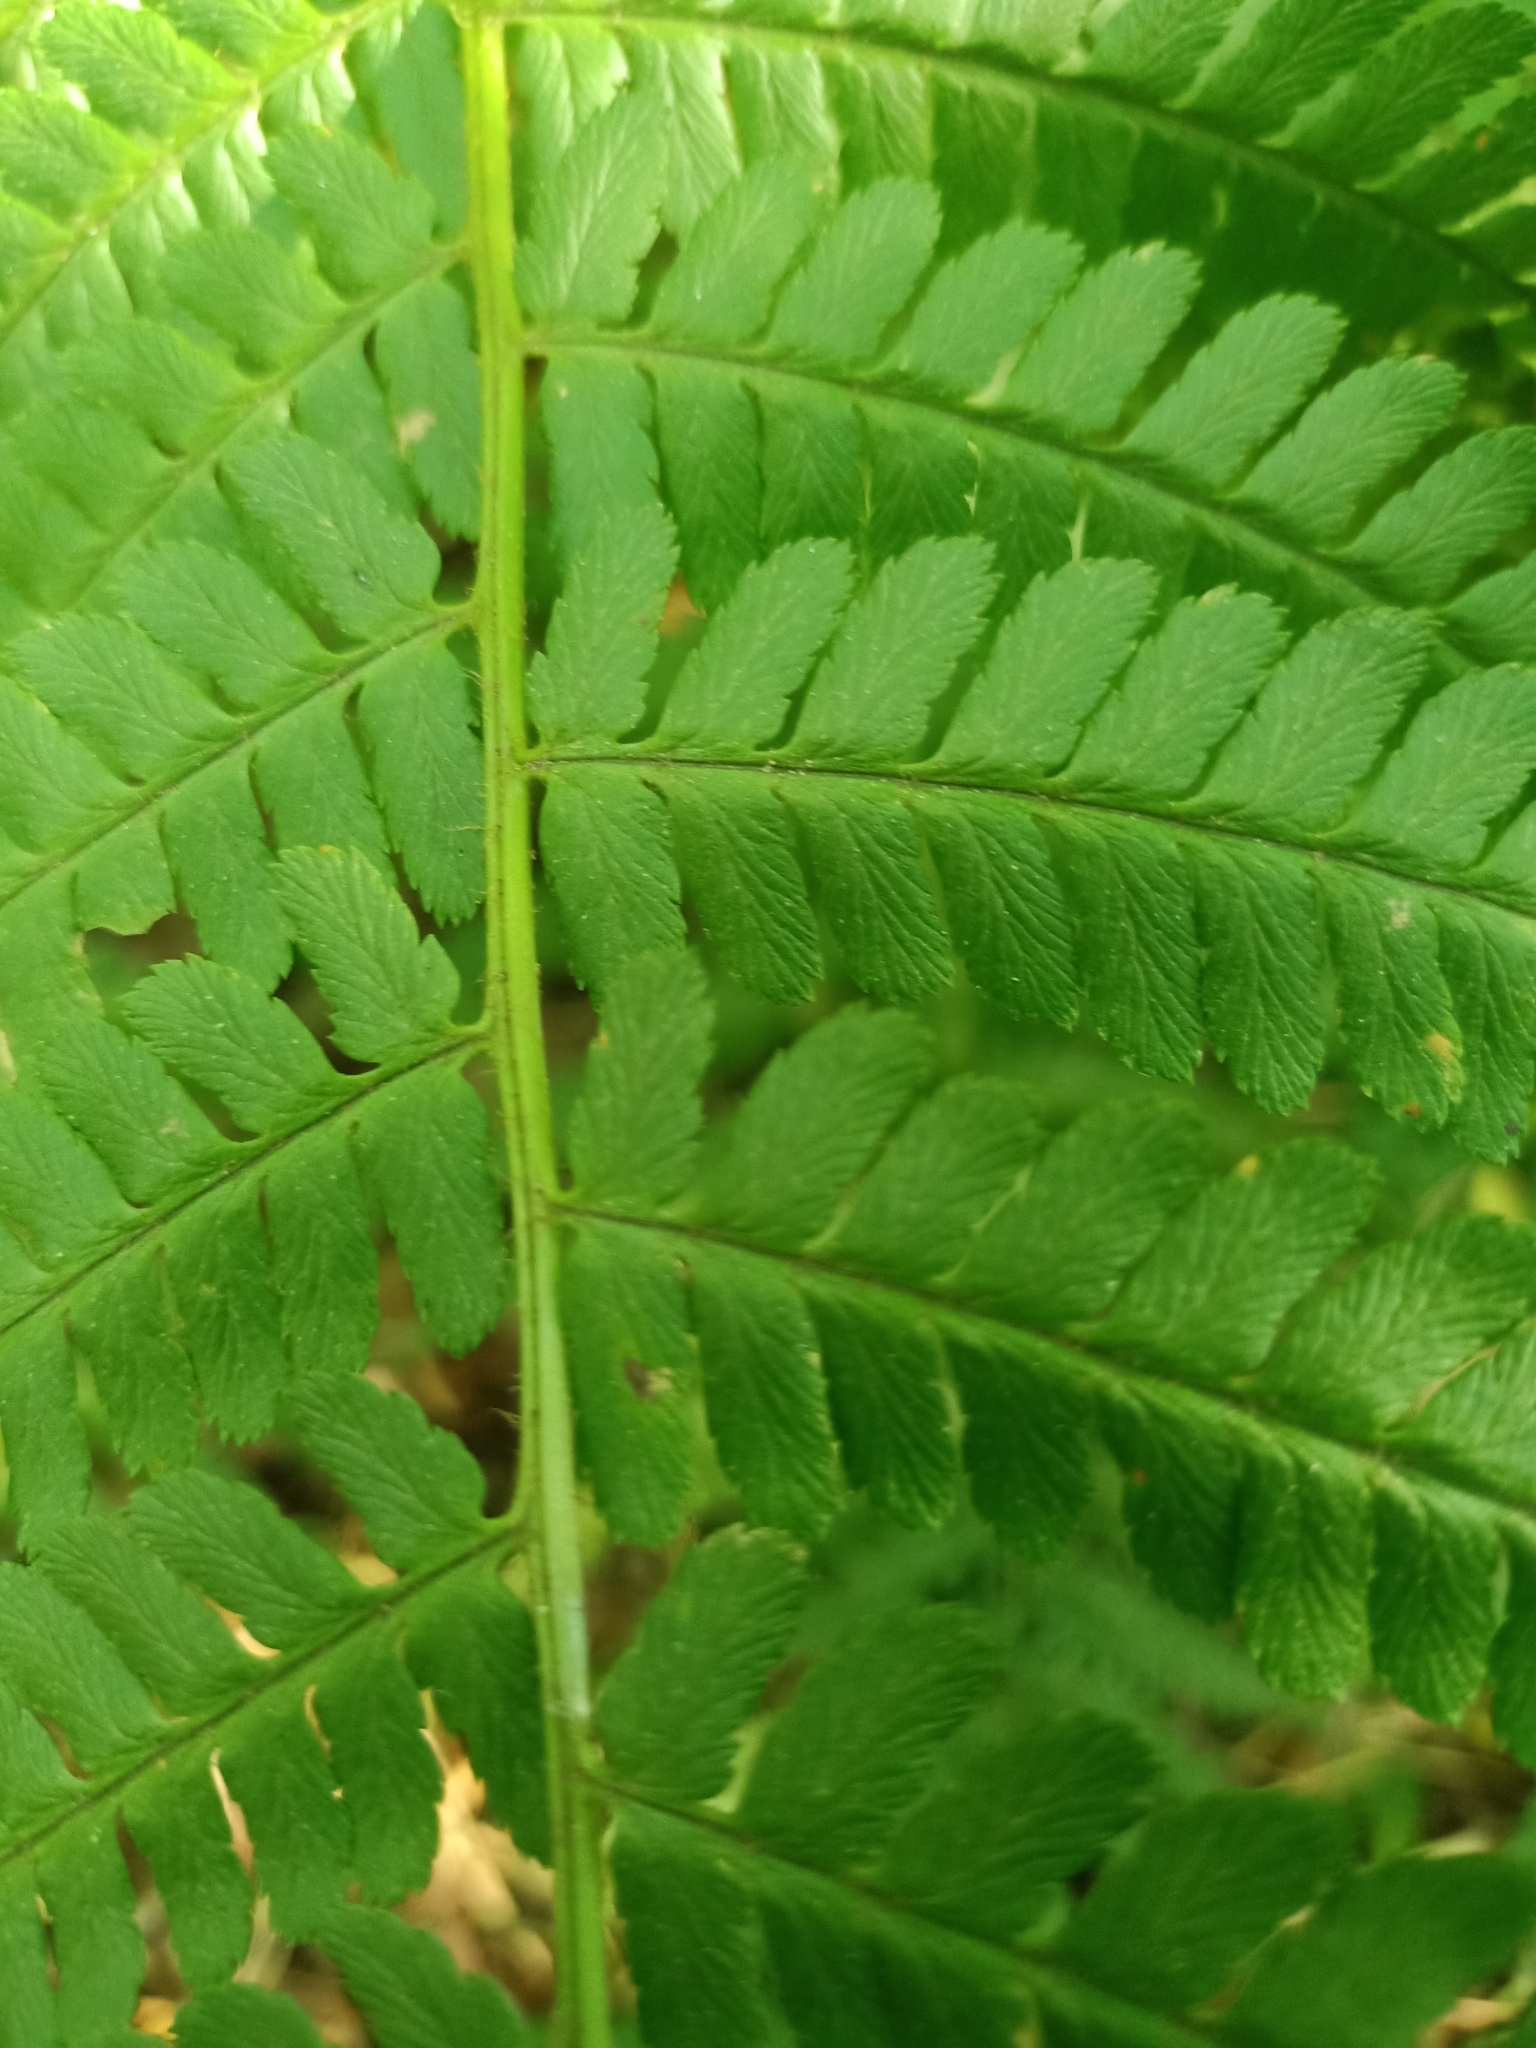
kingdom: Plantae
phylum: Tracheophyta
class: Polypodiopsida
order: Polypodiales
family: Dryopteridaceae
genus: Dryopteris
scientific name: Dryopteris filix-mas
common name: Male fern
